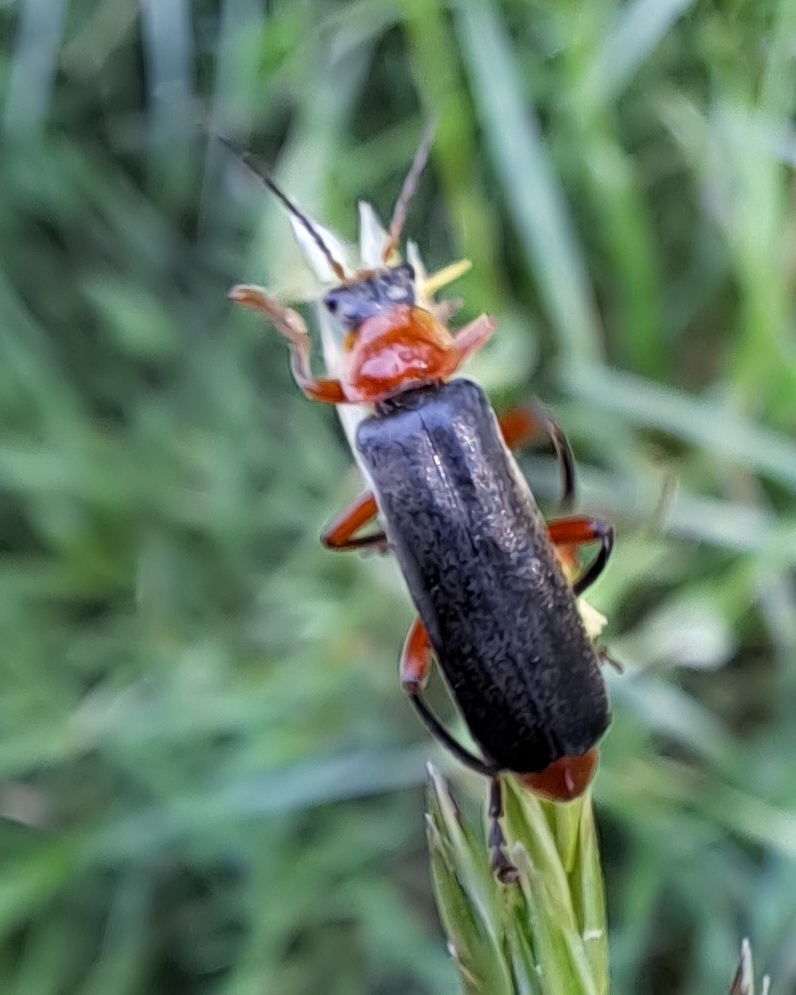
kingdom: Animalia
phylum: Arthropoda
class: Insecta
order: Coleoptera
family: Cantharidae
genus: Cantharis
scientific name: Cantharis pellucida
